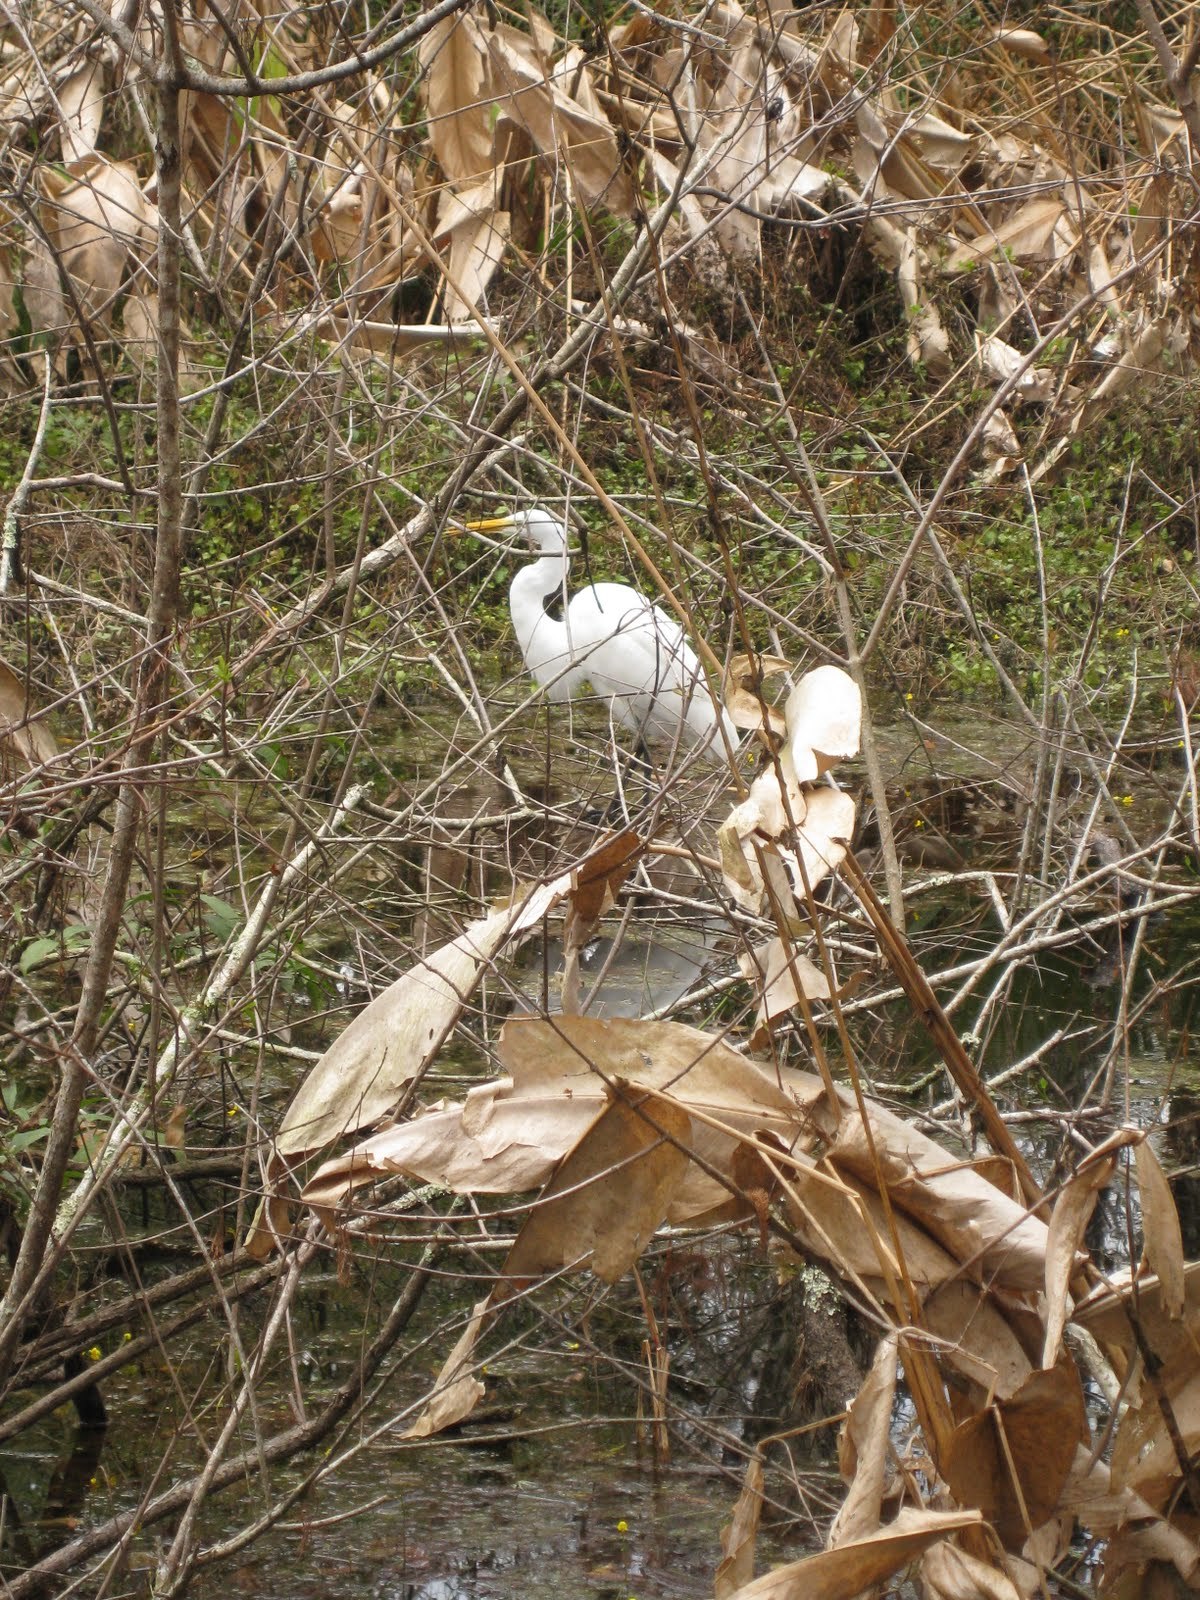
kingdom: Animalia
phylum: Chordata
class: Aves
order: Pelecaniformes
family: Ardeidae
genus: Ardea
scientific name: Ardea alba
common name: Great egret
